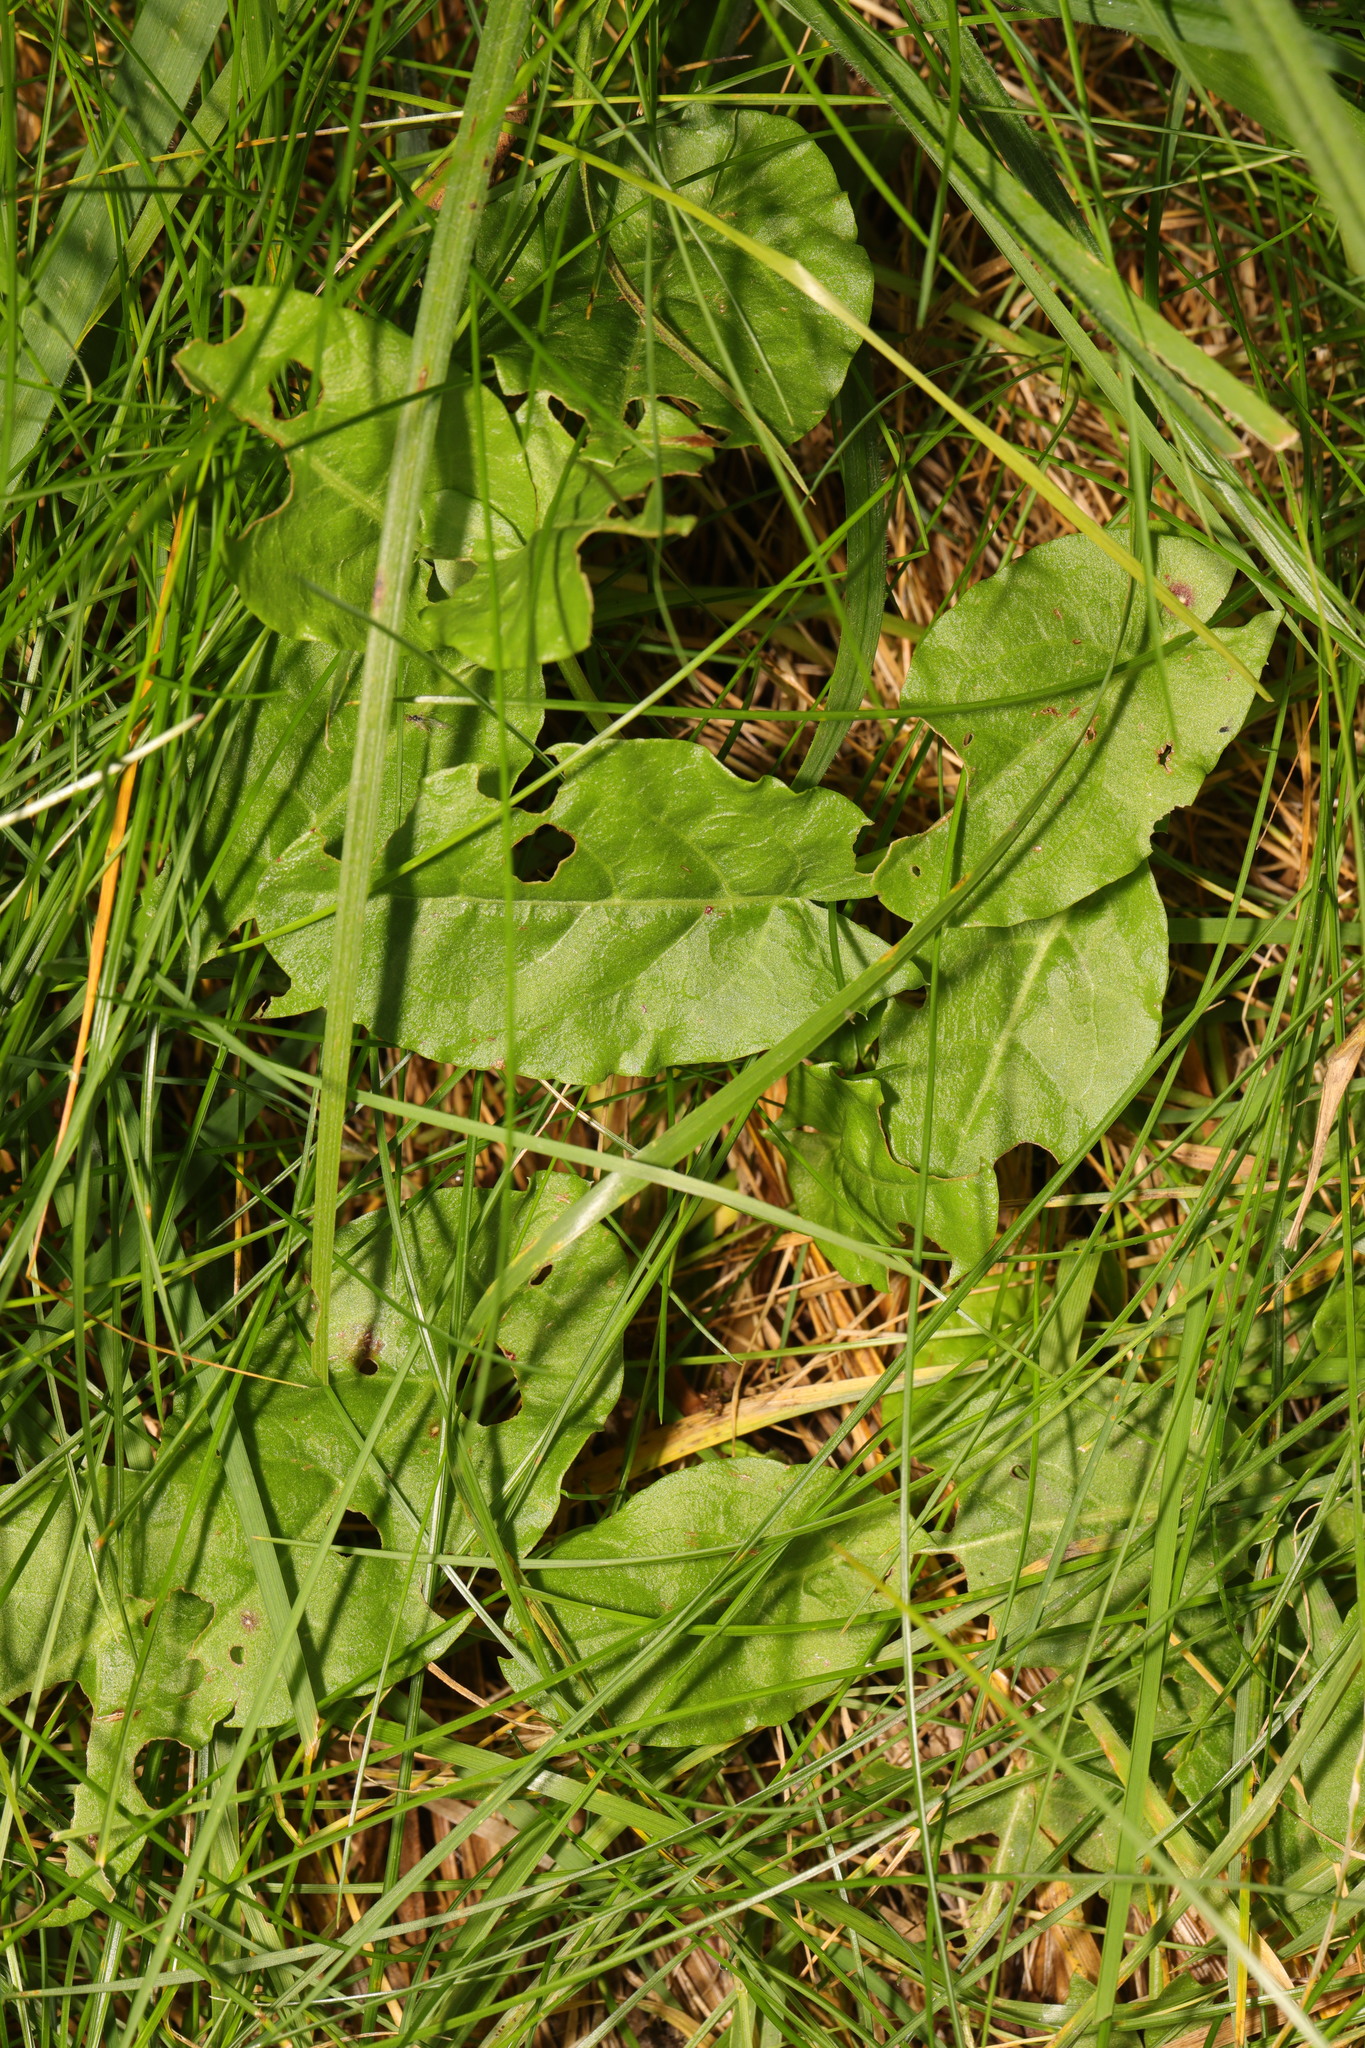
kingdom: Plantae
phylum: Tracheophyta
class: Magnoliopsida
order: Caryophyllales
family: Polygonaceae
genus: Rumex
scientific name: Rumex acetosa
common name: Garden sorrel
